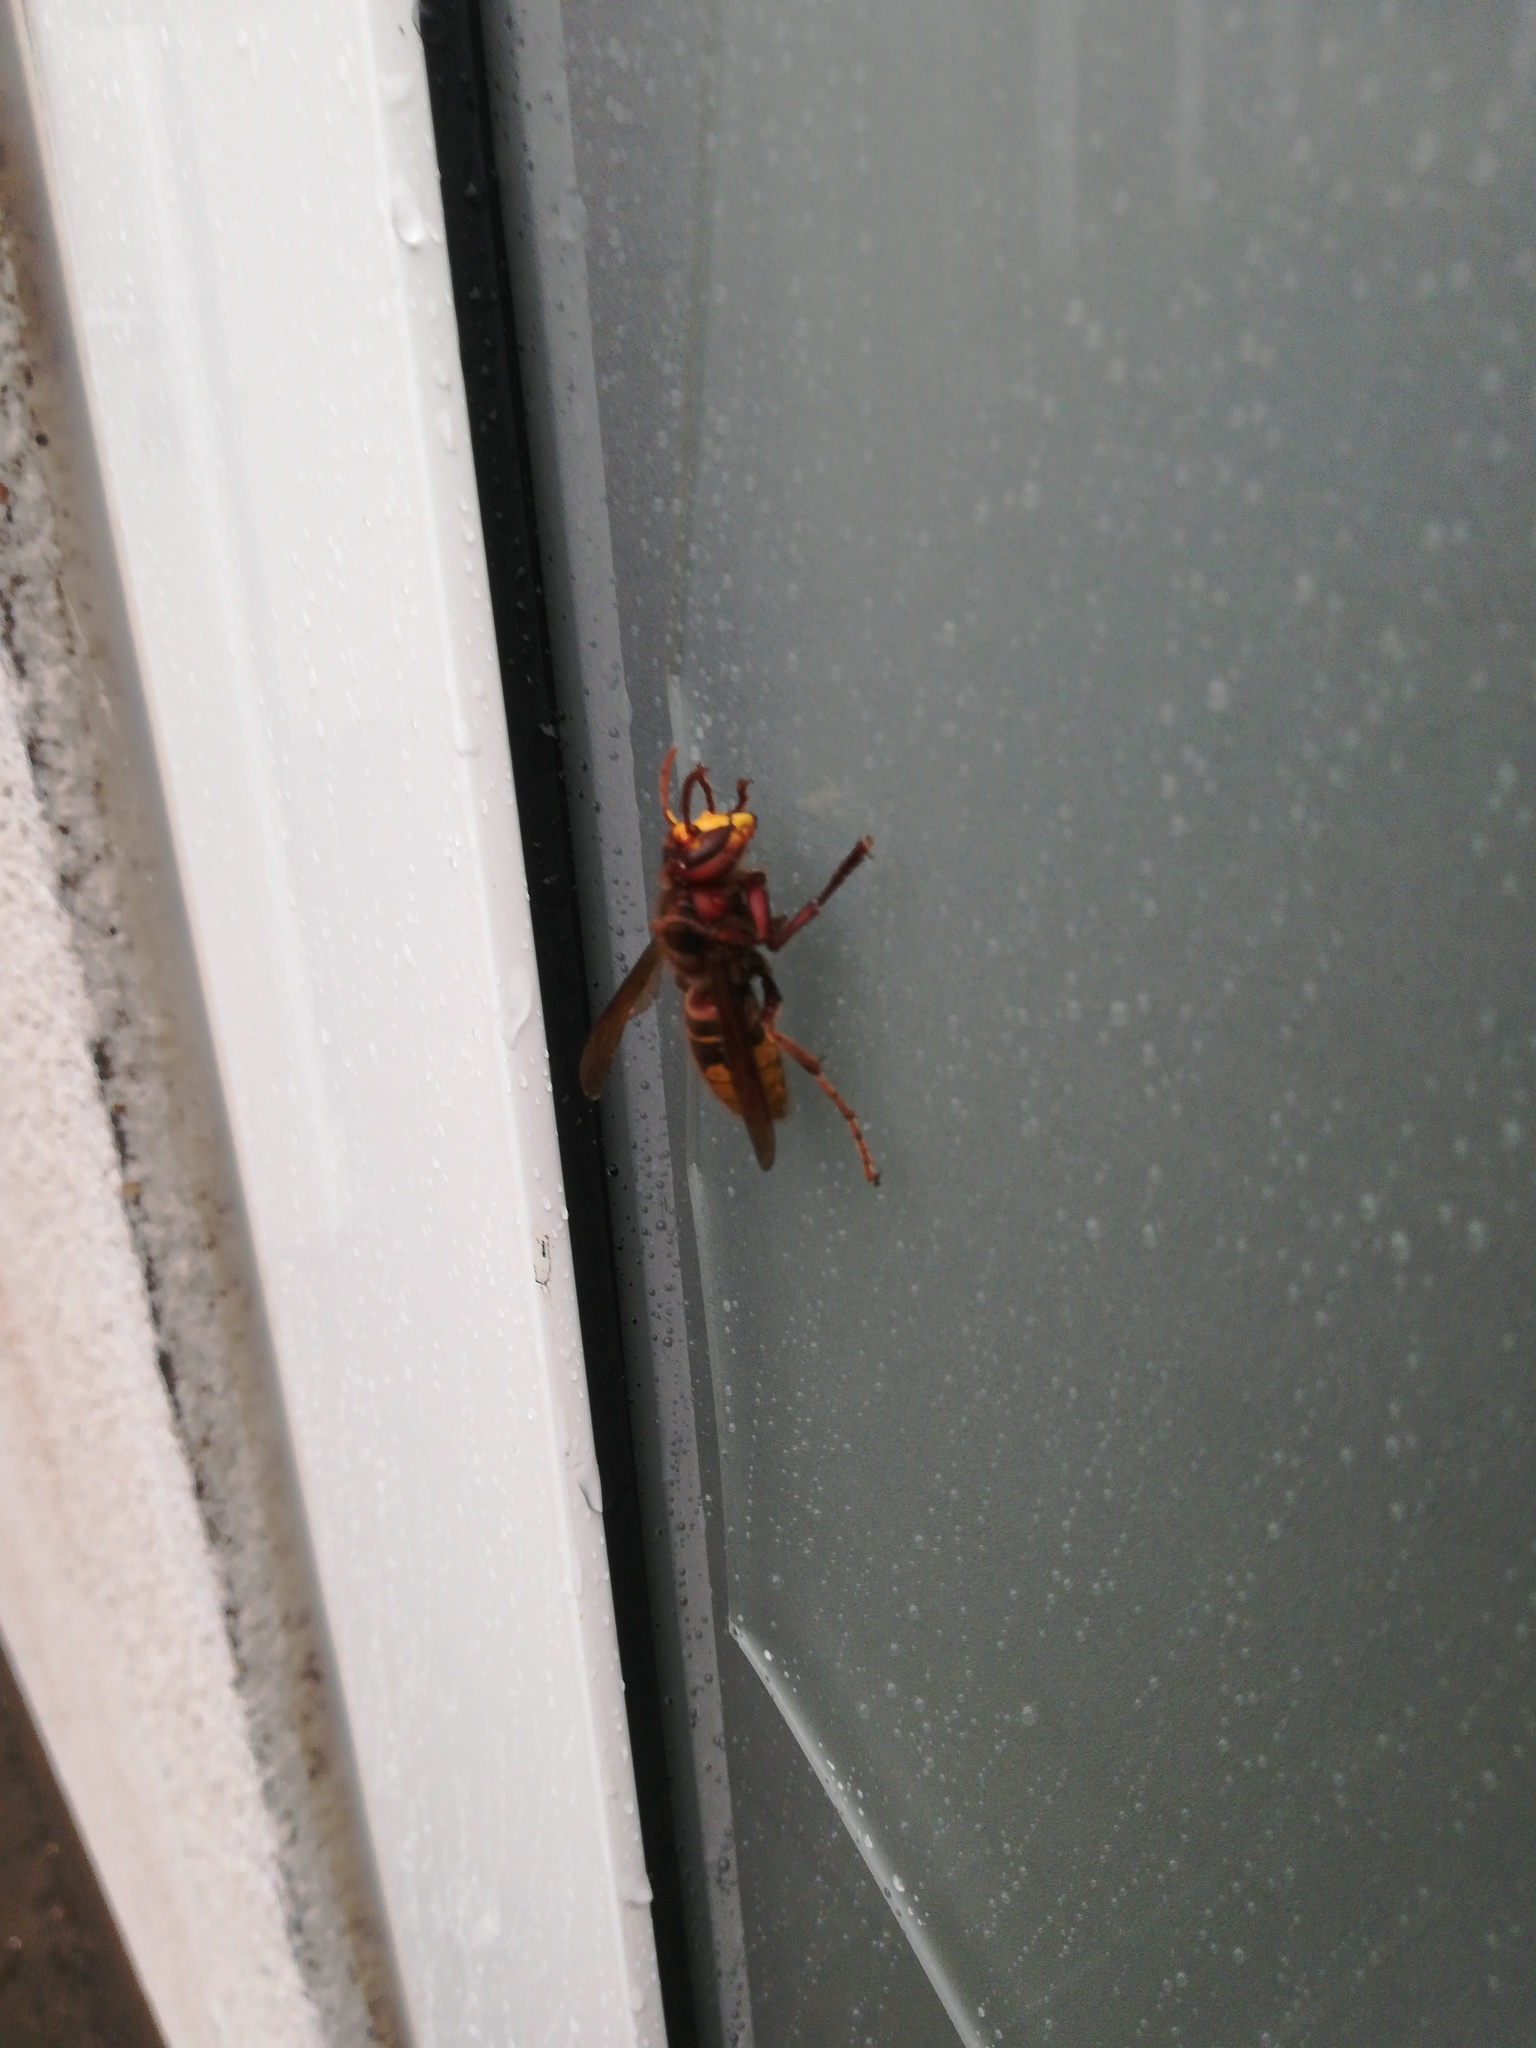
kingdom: Animalia
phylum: Arthropoda
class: Insecta
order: Hymenoptera
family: Vespidae
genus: Vespa
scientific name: Vespa crabro
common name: Hornet
